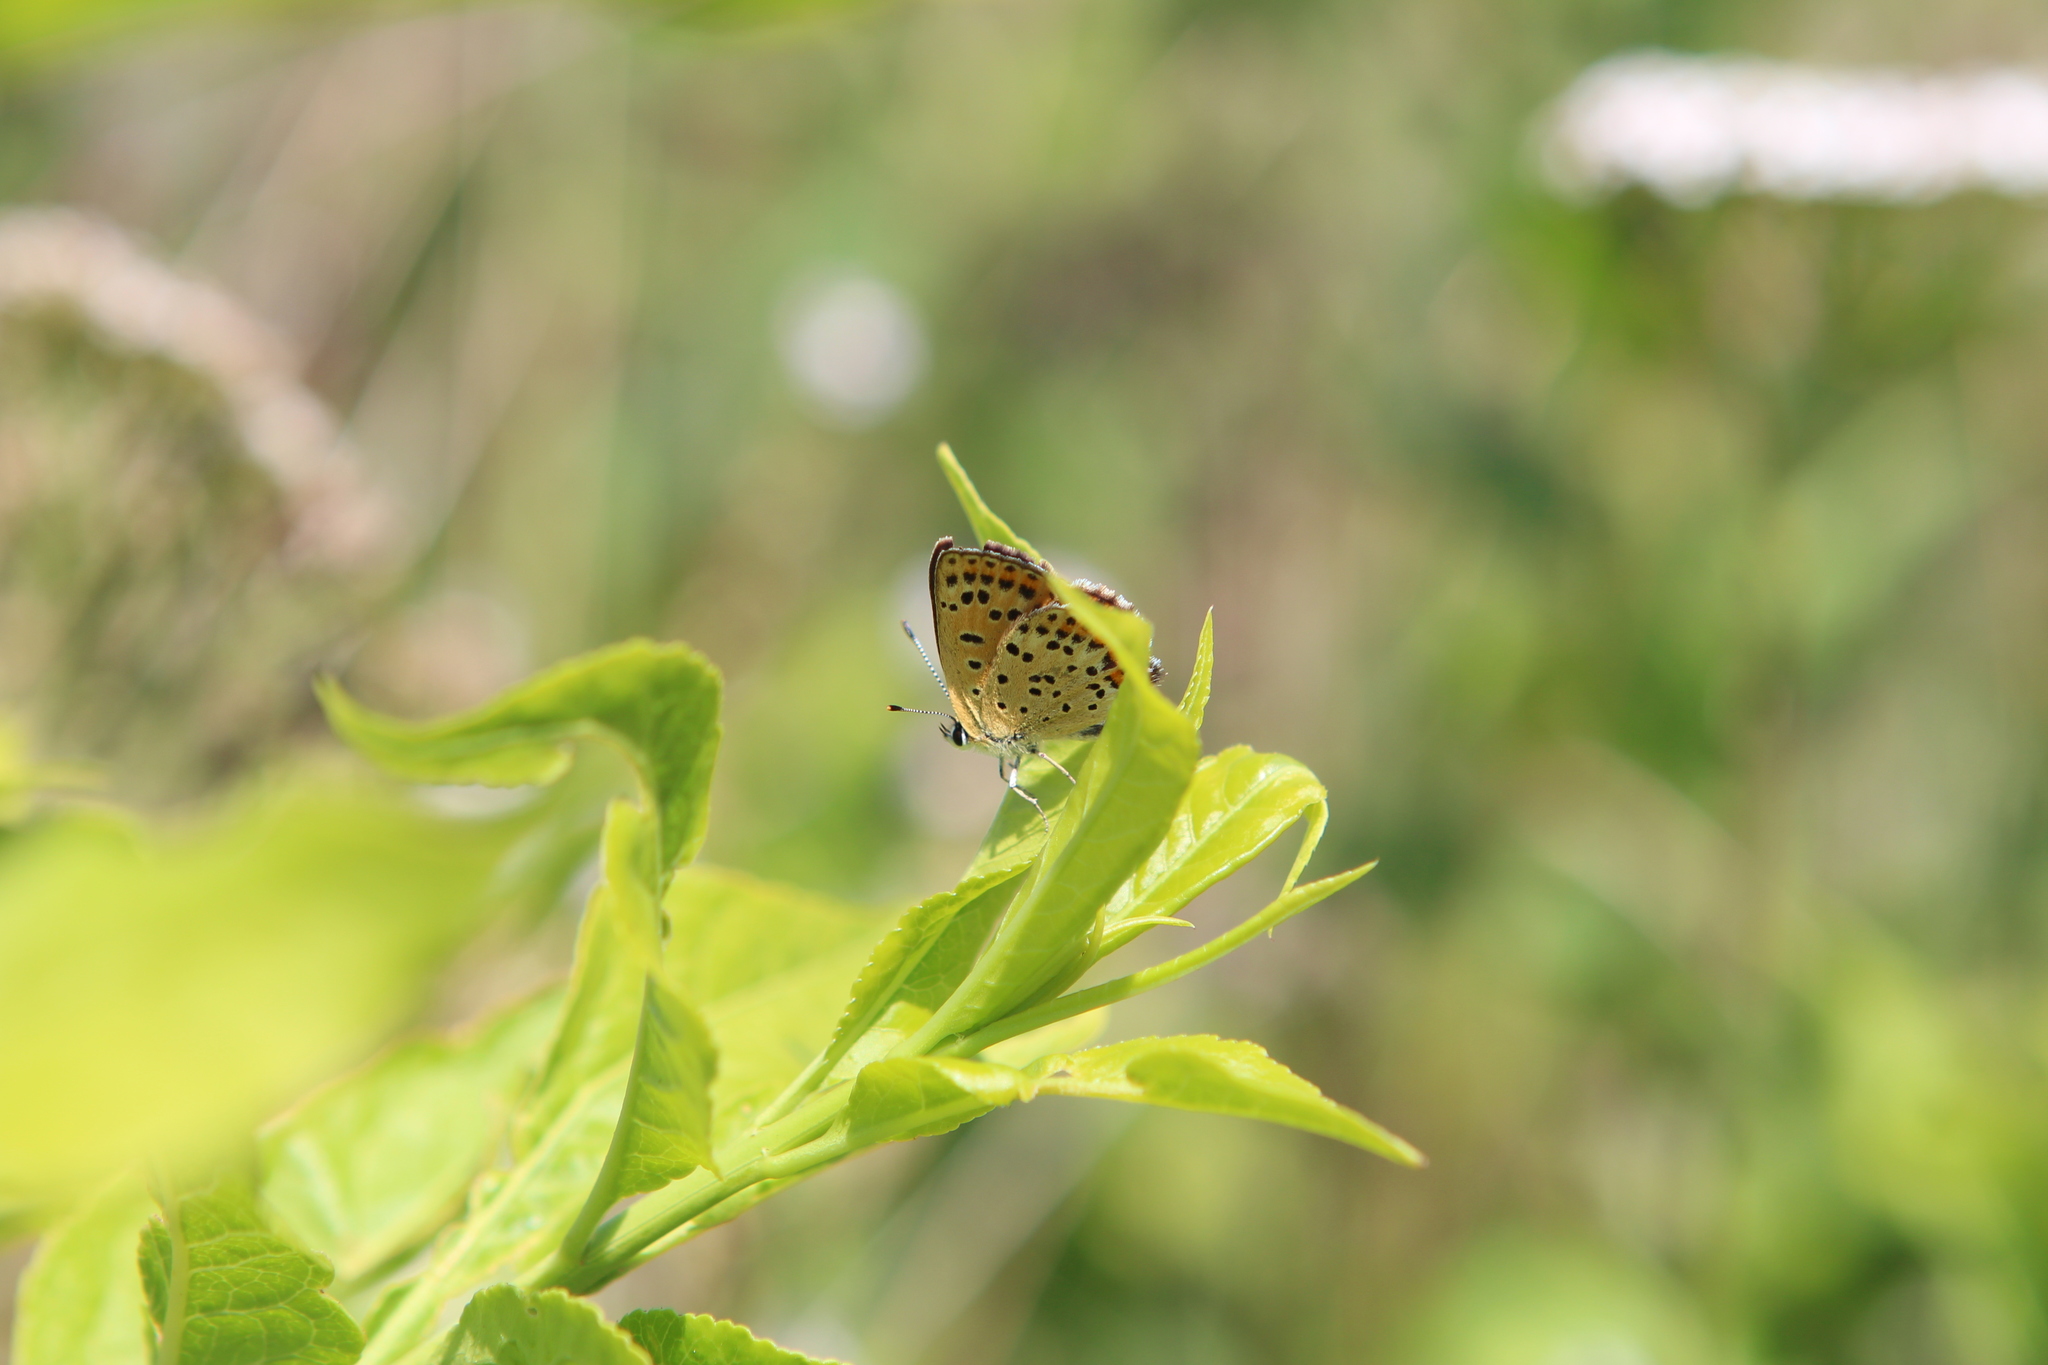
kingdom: Animalia
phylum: Arthropoda
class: Insecta
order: Lepidoptera
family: Lycaenidae
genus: Loweia
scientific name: Loweia tityrus
